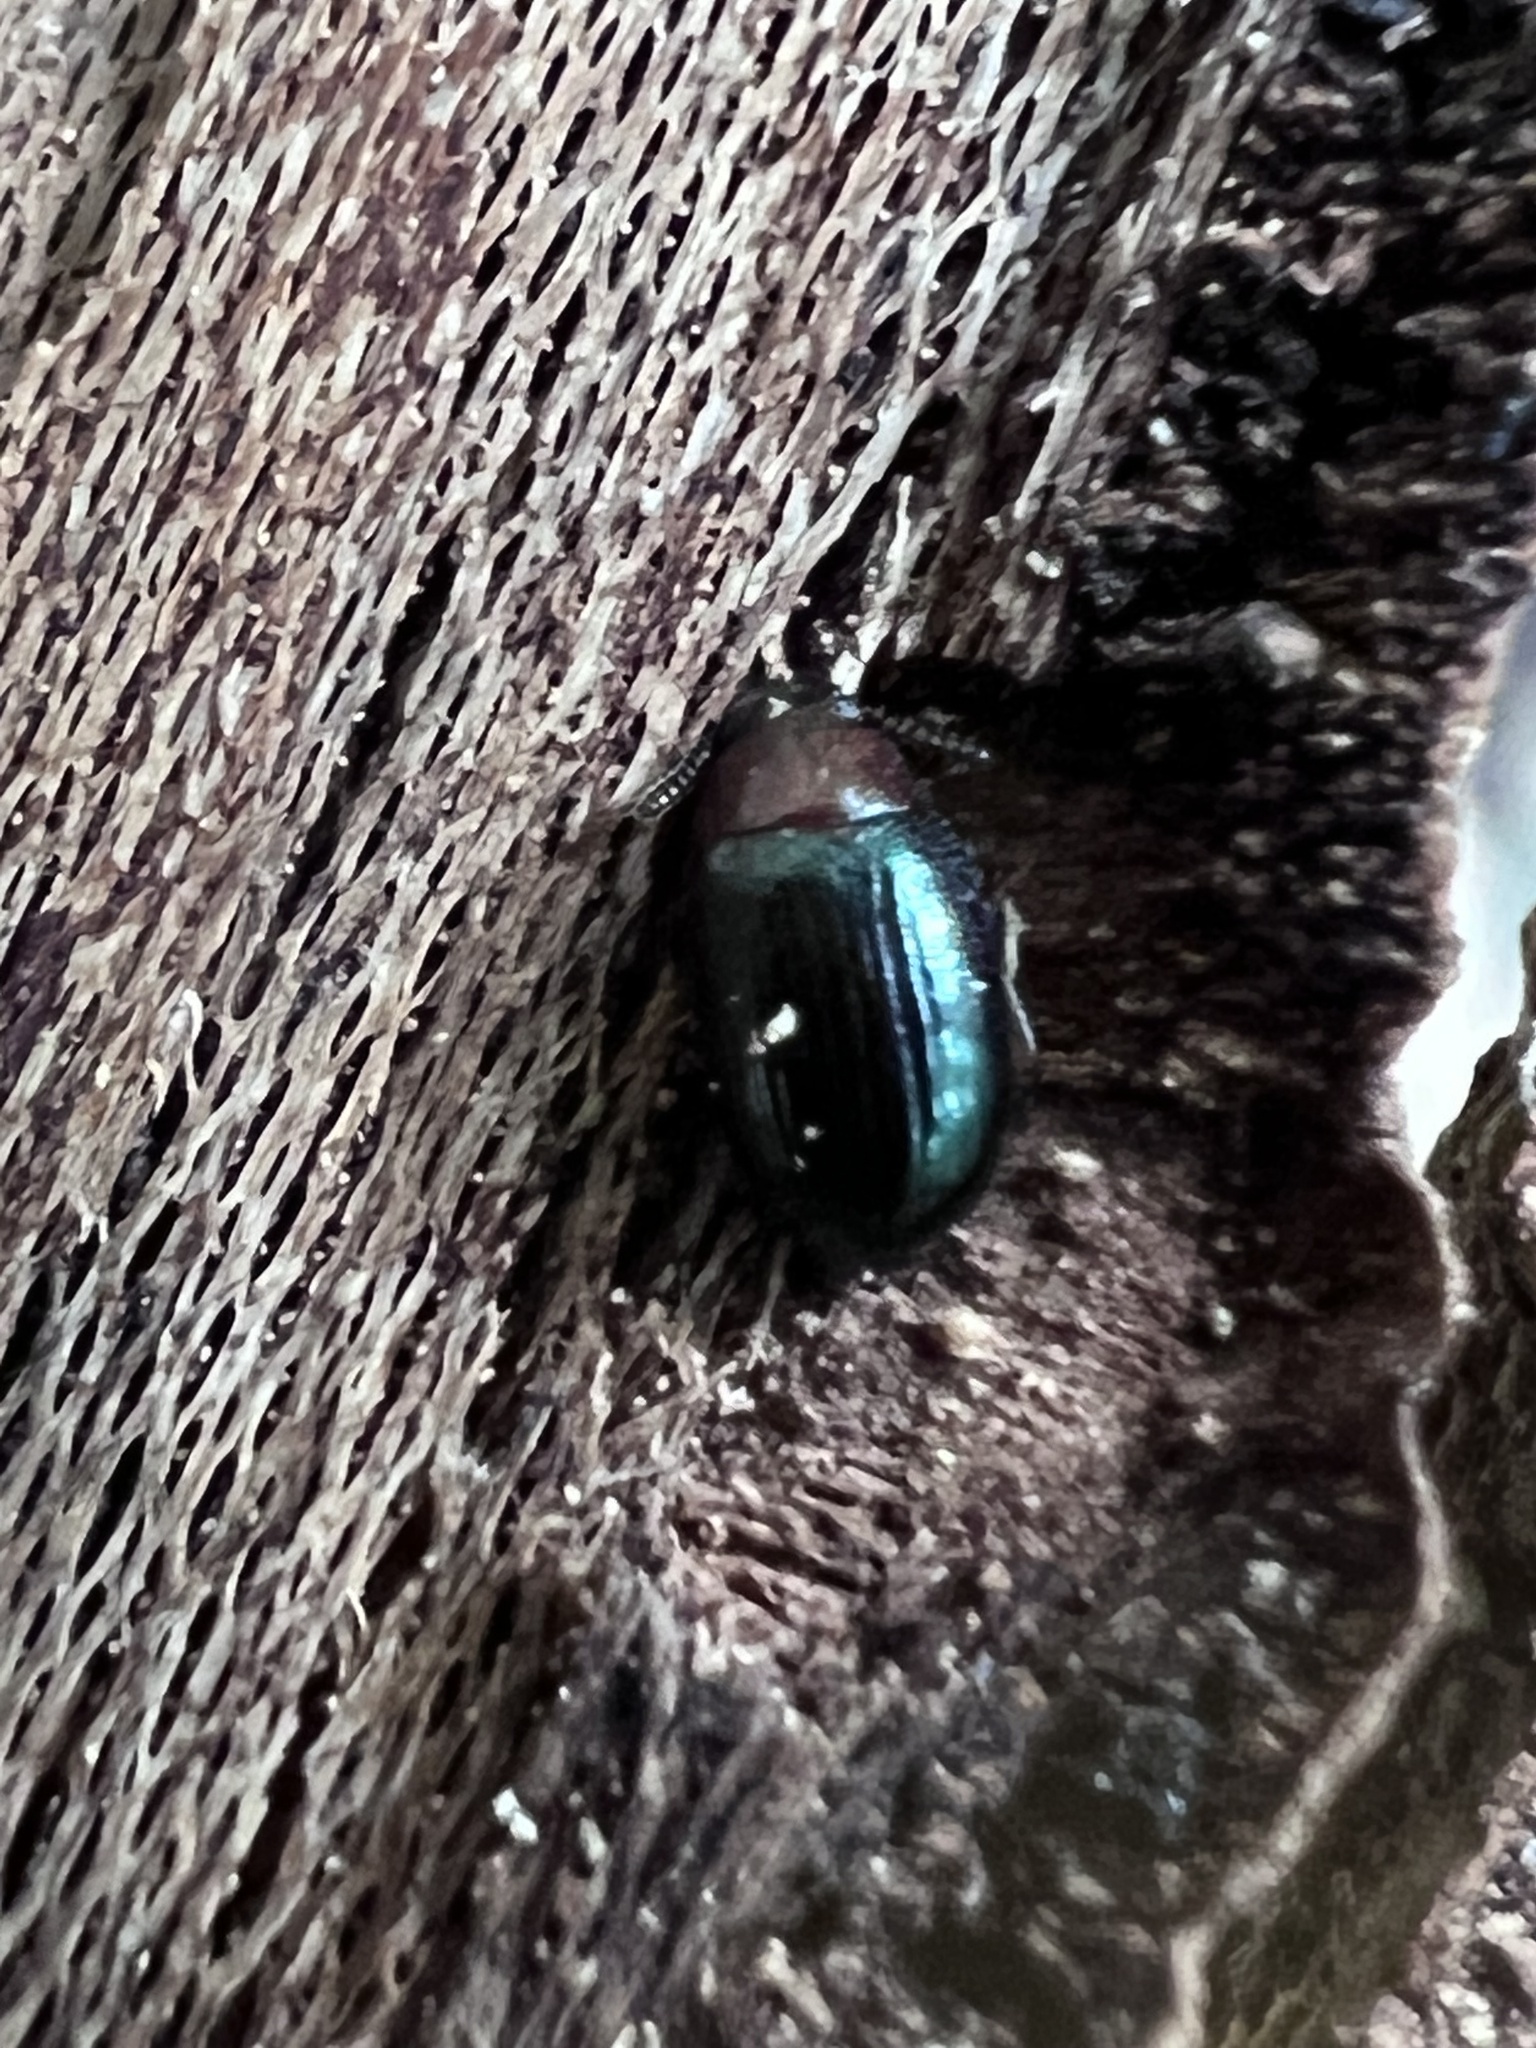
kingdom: Animalia
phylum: Arthropoda
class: Insecta
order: Coleoptera
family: Tenebrionidae
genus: Neomida
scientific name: Neomida bicornis
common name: Two-horned darkling beetle
